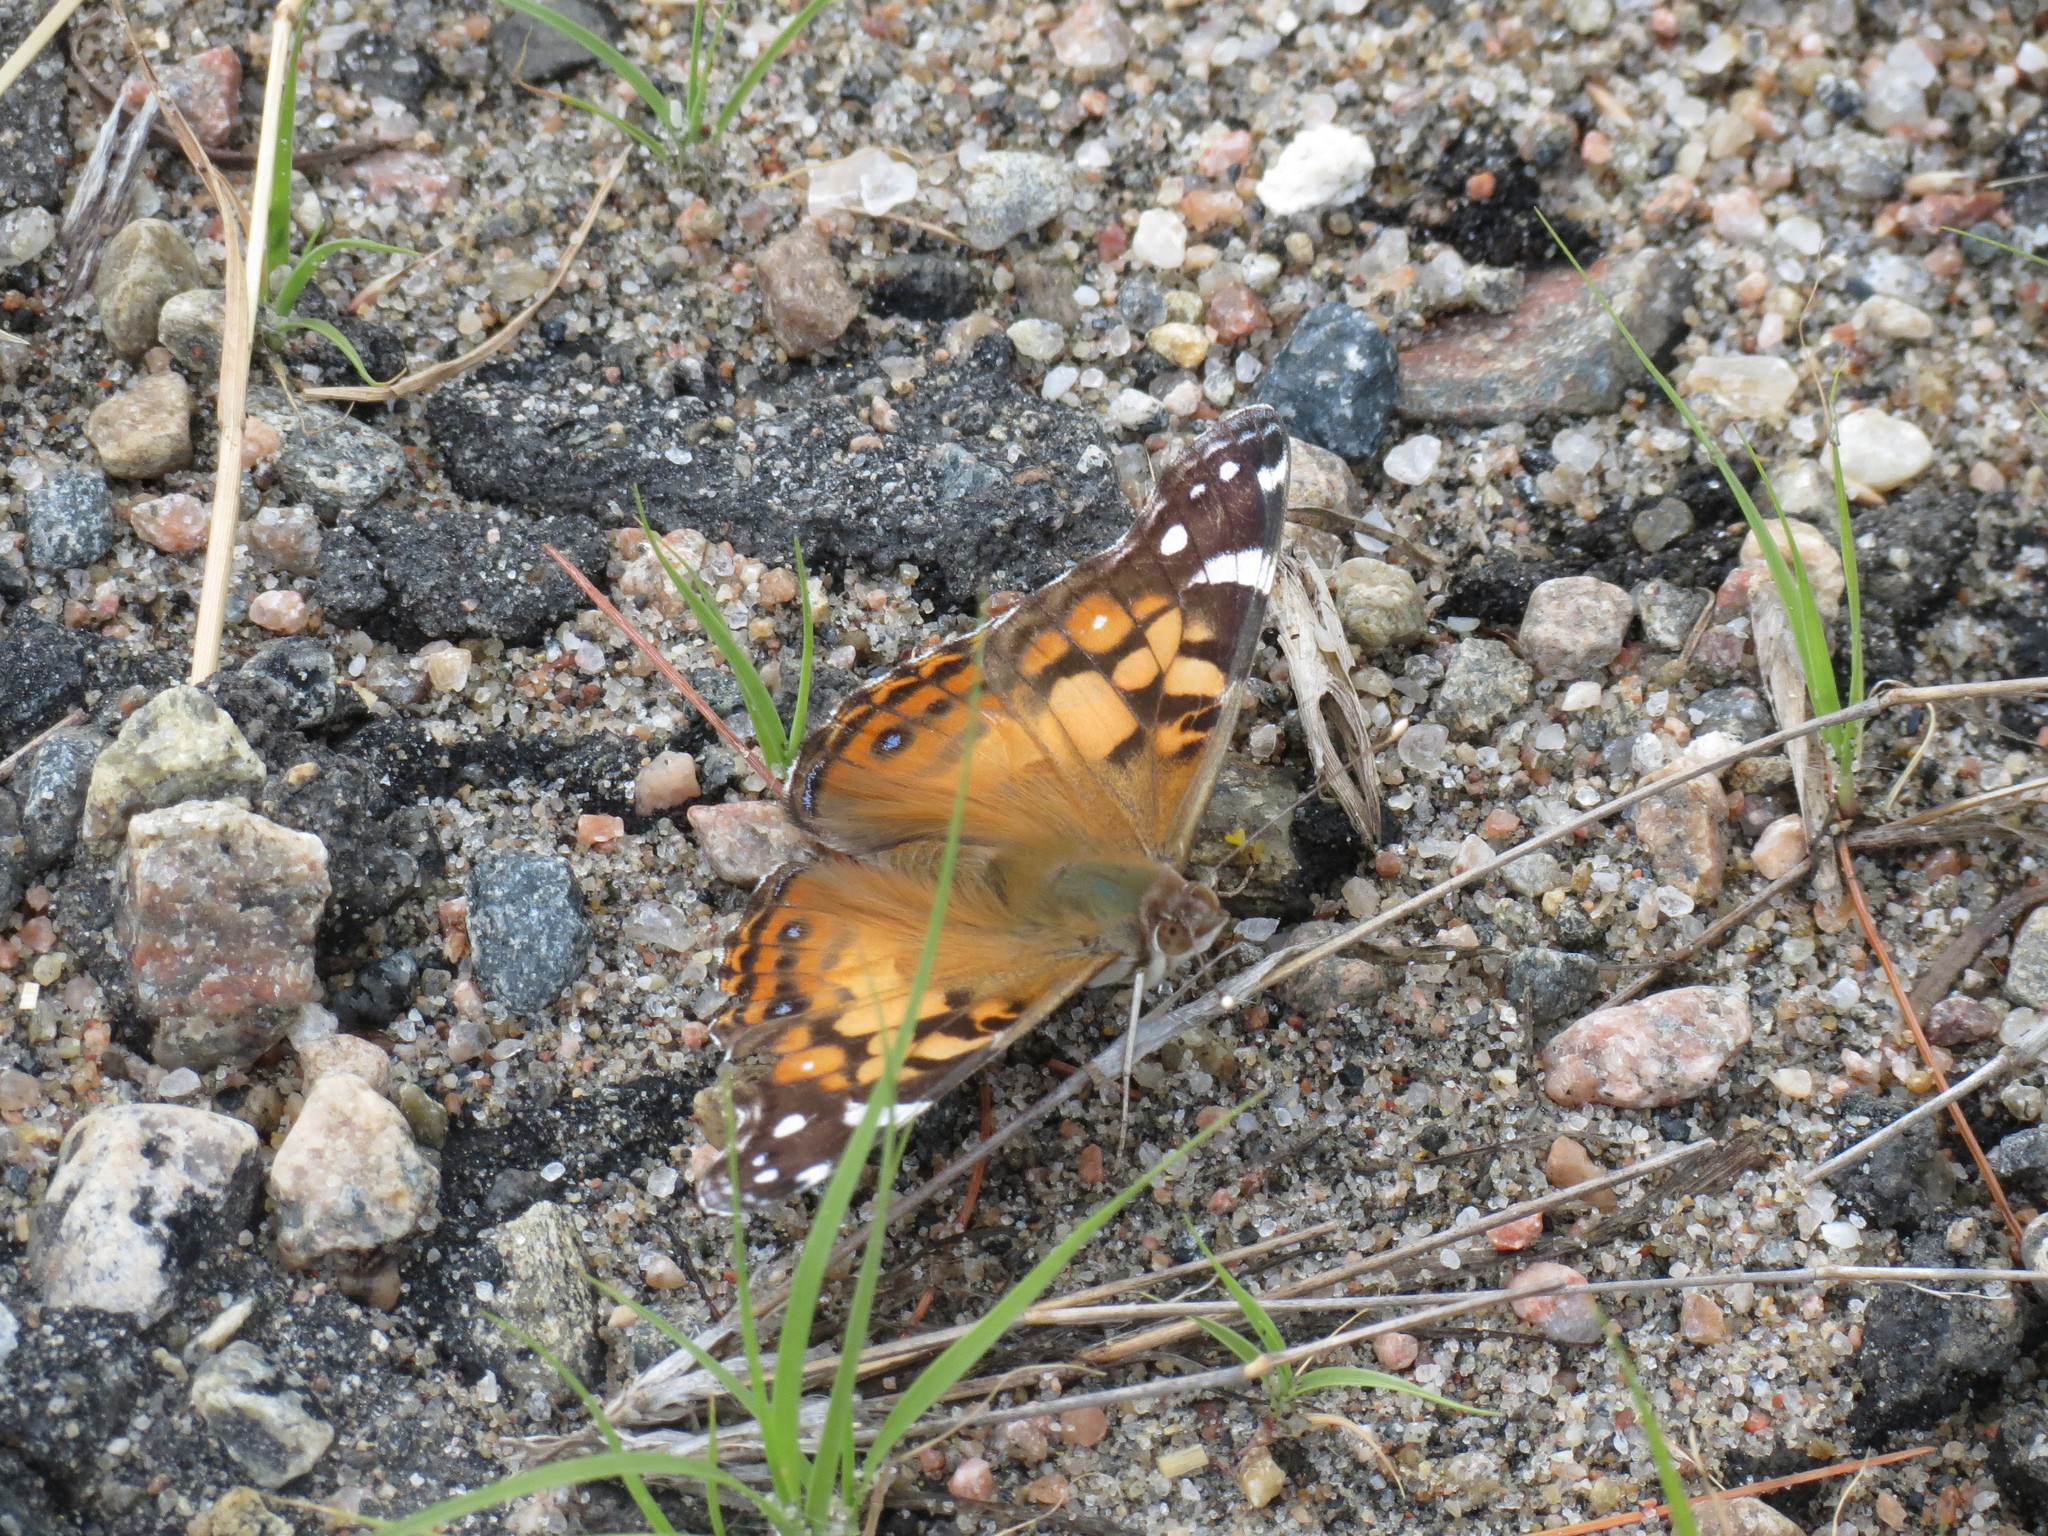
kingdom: Animalia
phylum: Arthropoda
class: Insecta
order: Lepidoptera
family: Nymphalidae
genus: Vanessa
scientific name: Vanessa virginiensis
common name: American lady
